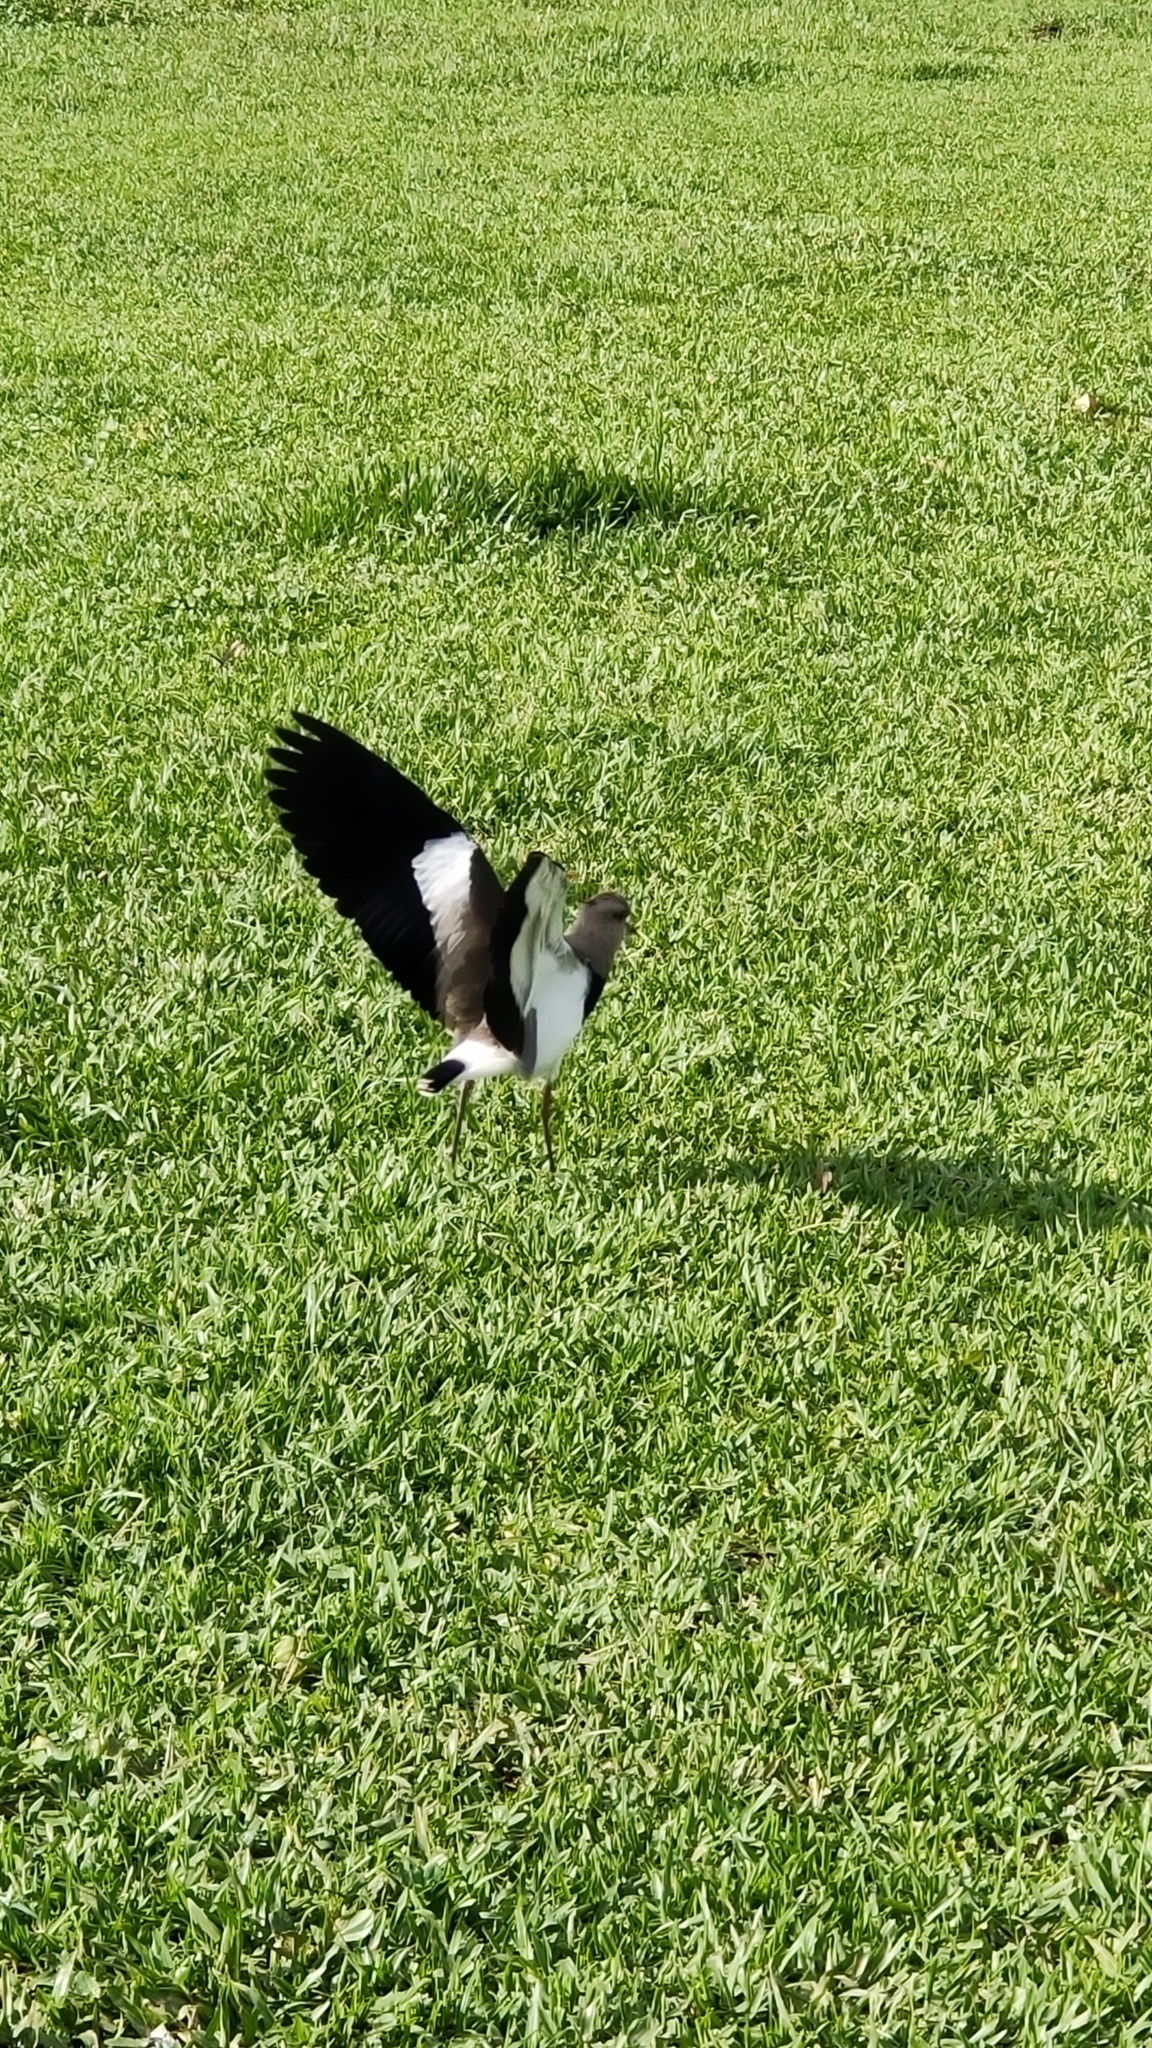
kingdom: Animalia
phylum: Chordata
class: Aves
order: Charadriiformes
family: Charadriidae
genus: Vanellus
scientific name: Vanellus chilensis
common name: Southern lapwing
